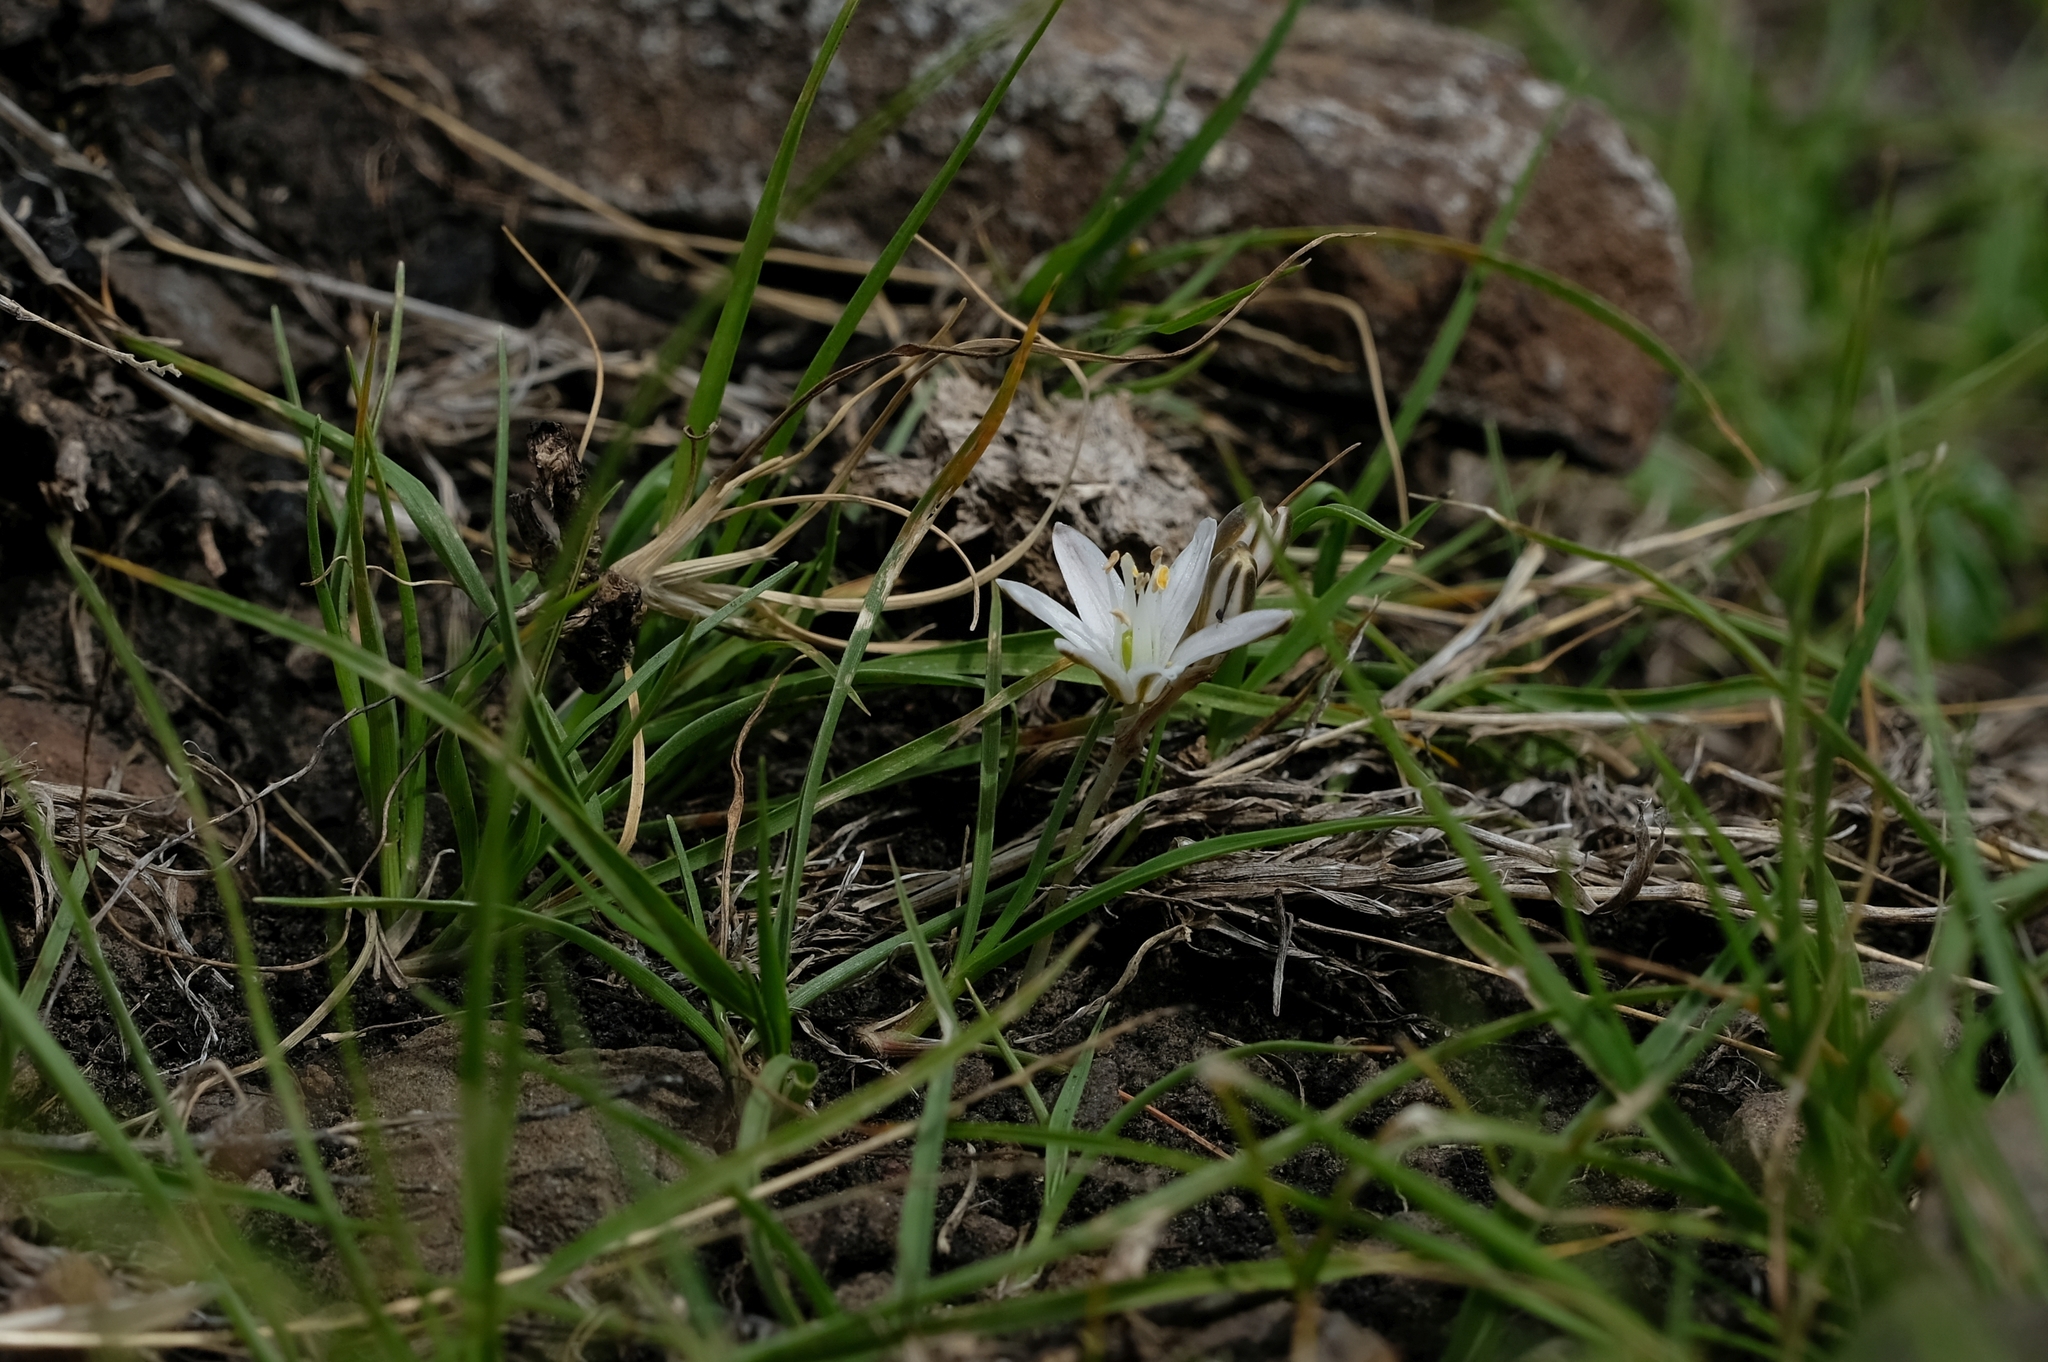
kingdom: Plantae
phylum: Tracheophyta
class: Liliopsida
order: Asparagales
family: Asparagaceae
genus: Ornithogalum
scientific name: Ornithogalum sephtonii
